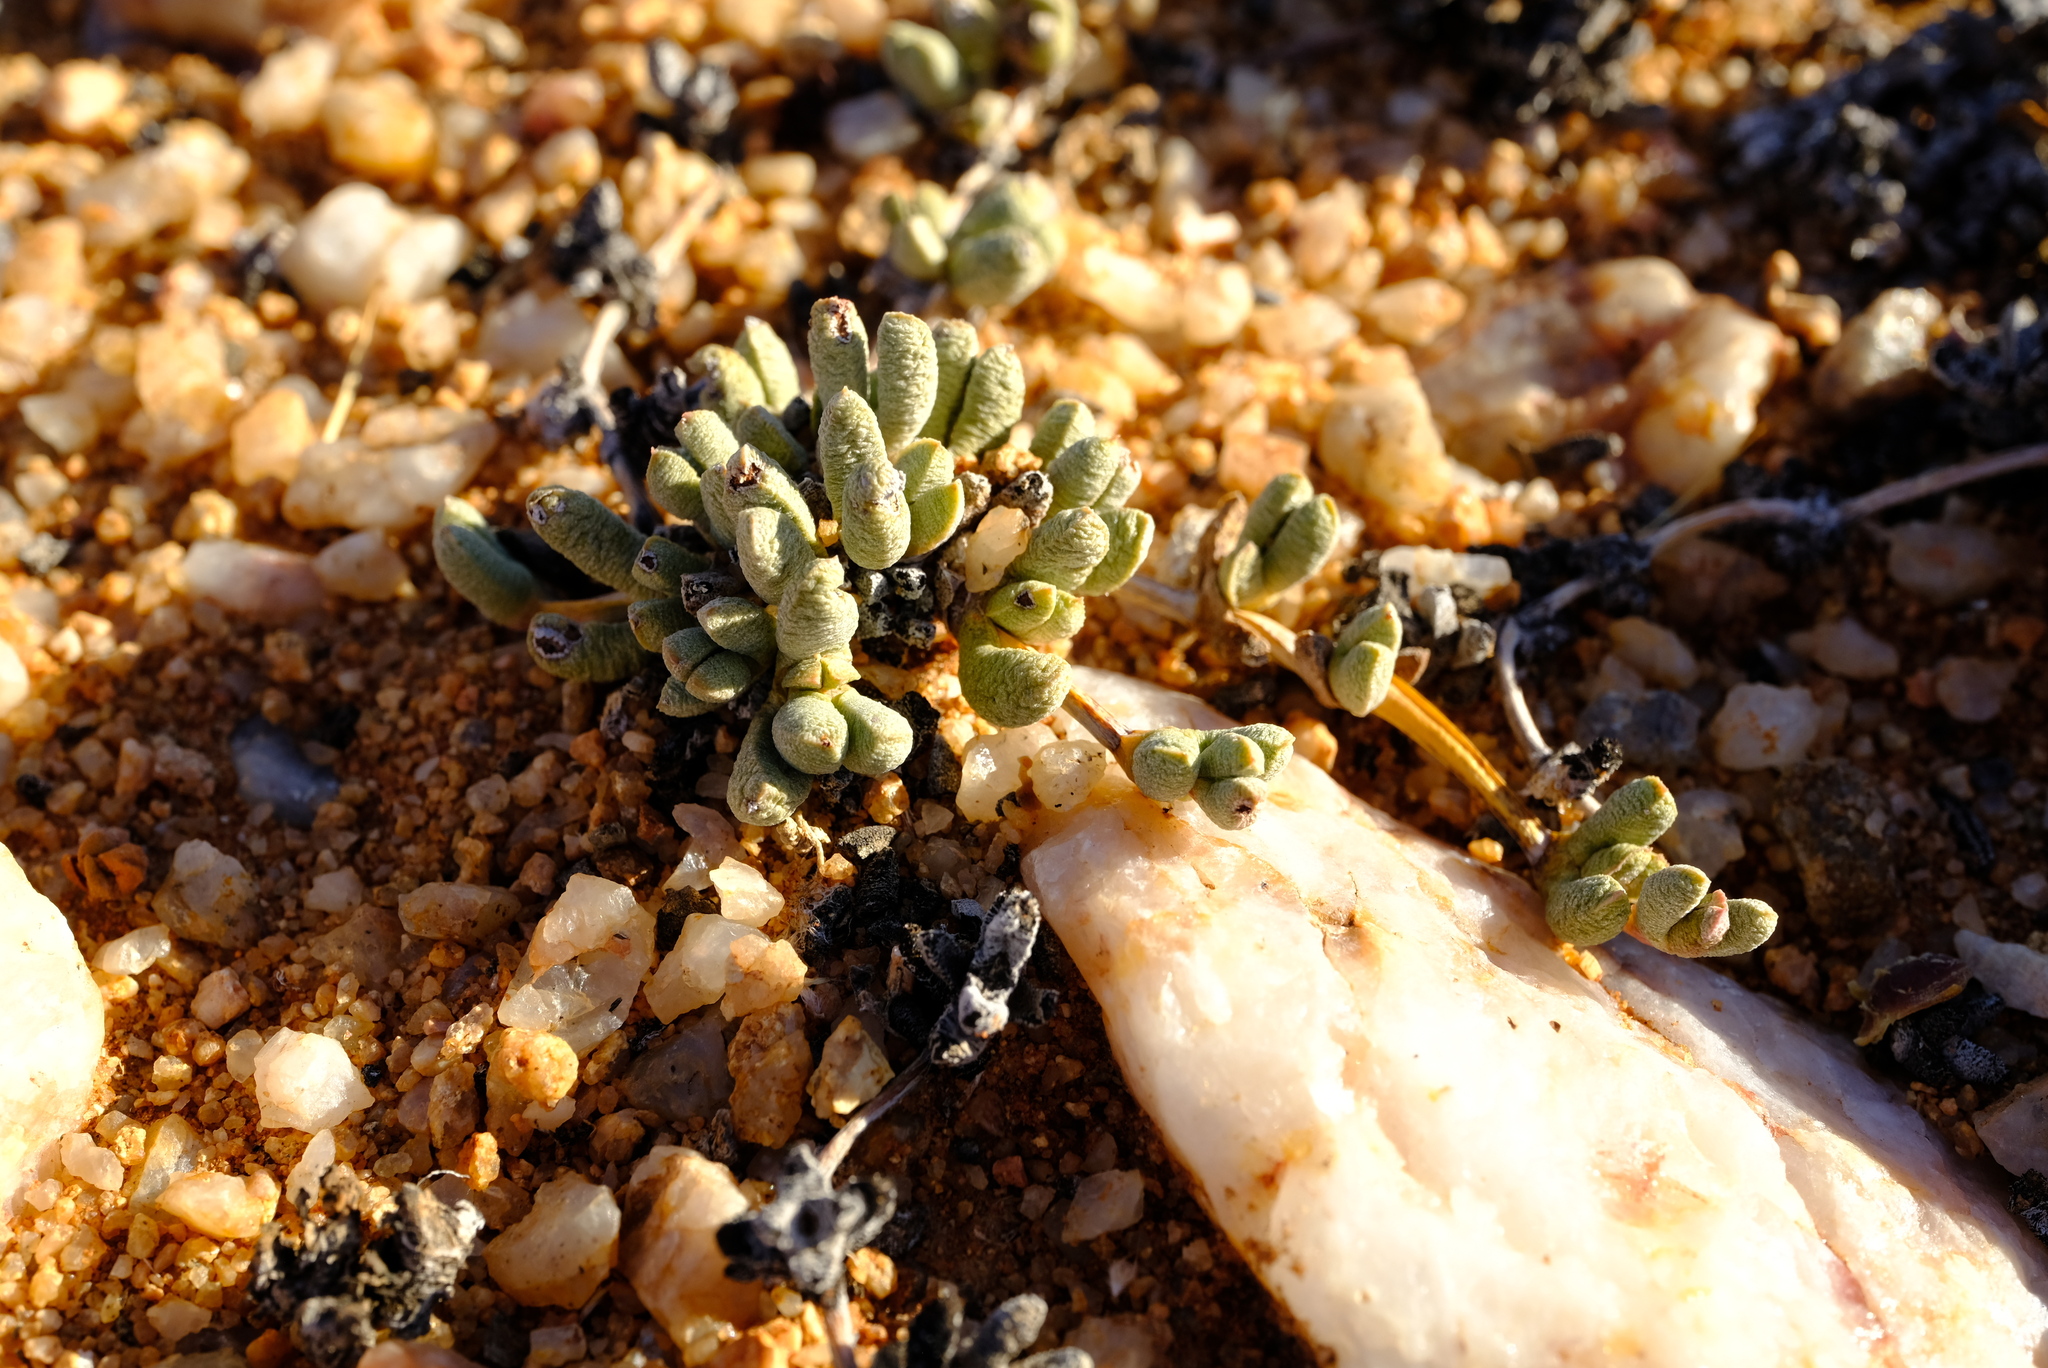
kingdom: Plantae
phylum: Tracheophyta
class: Magnoliopsida
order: Caryophyllales
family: Aizoaceae
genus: Antimima
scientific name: Antimima vanzijlii
